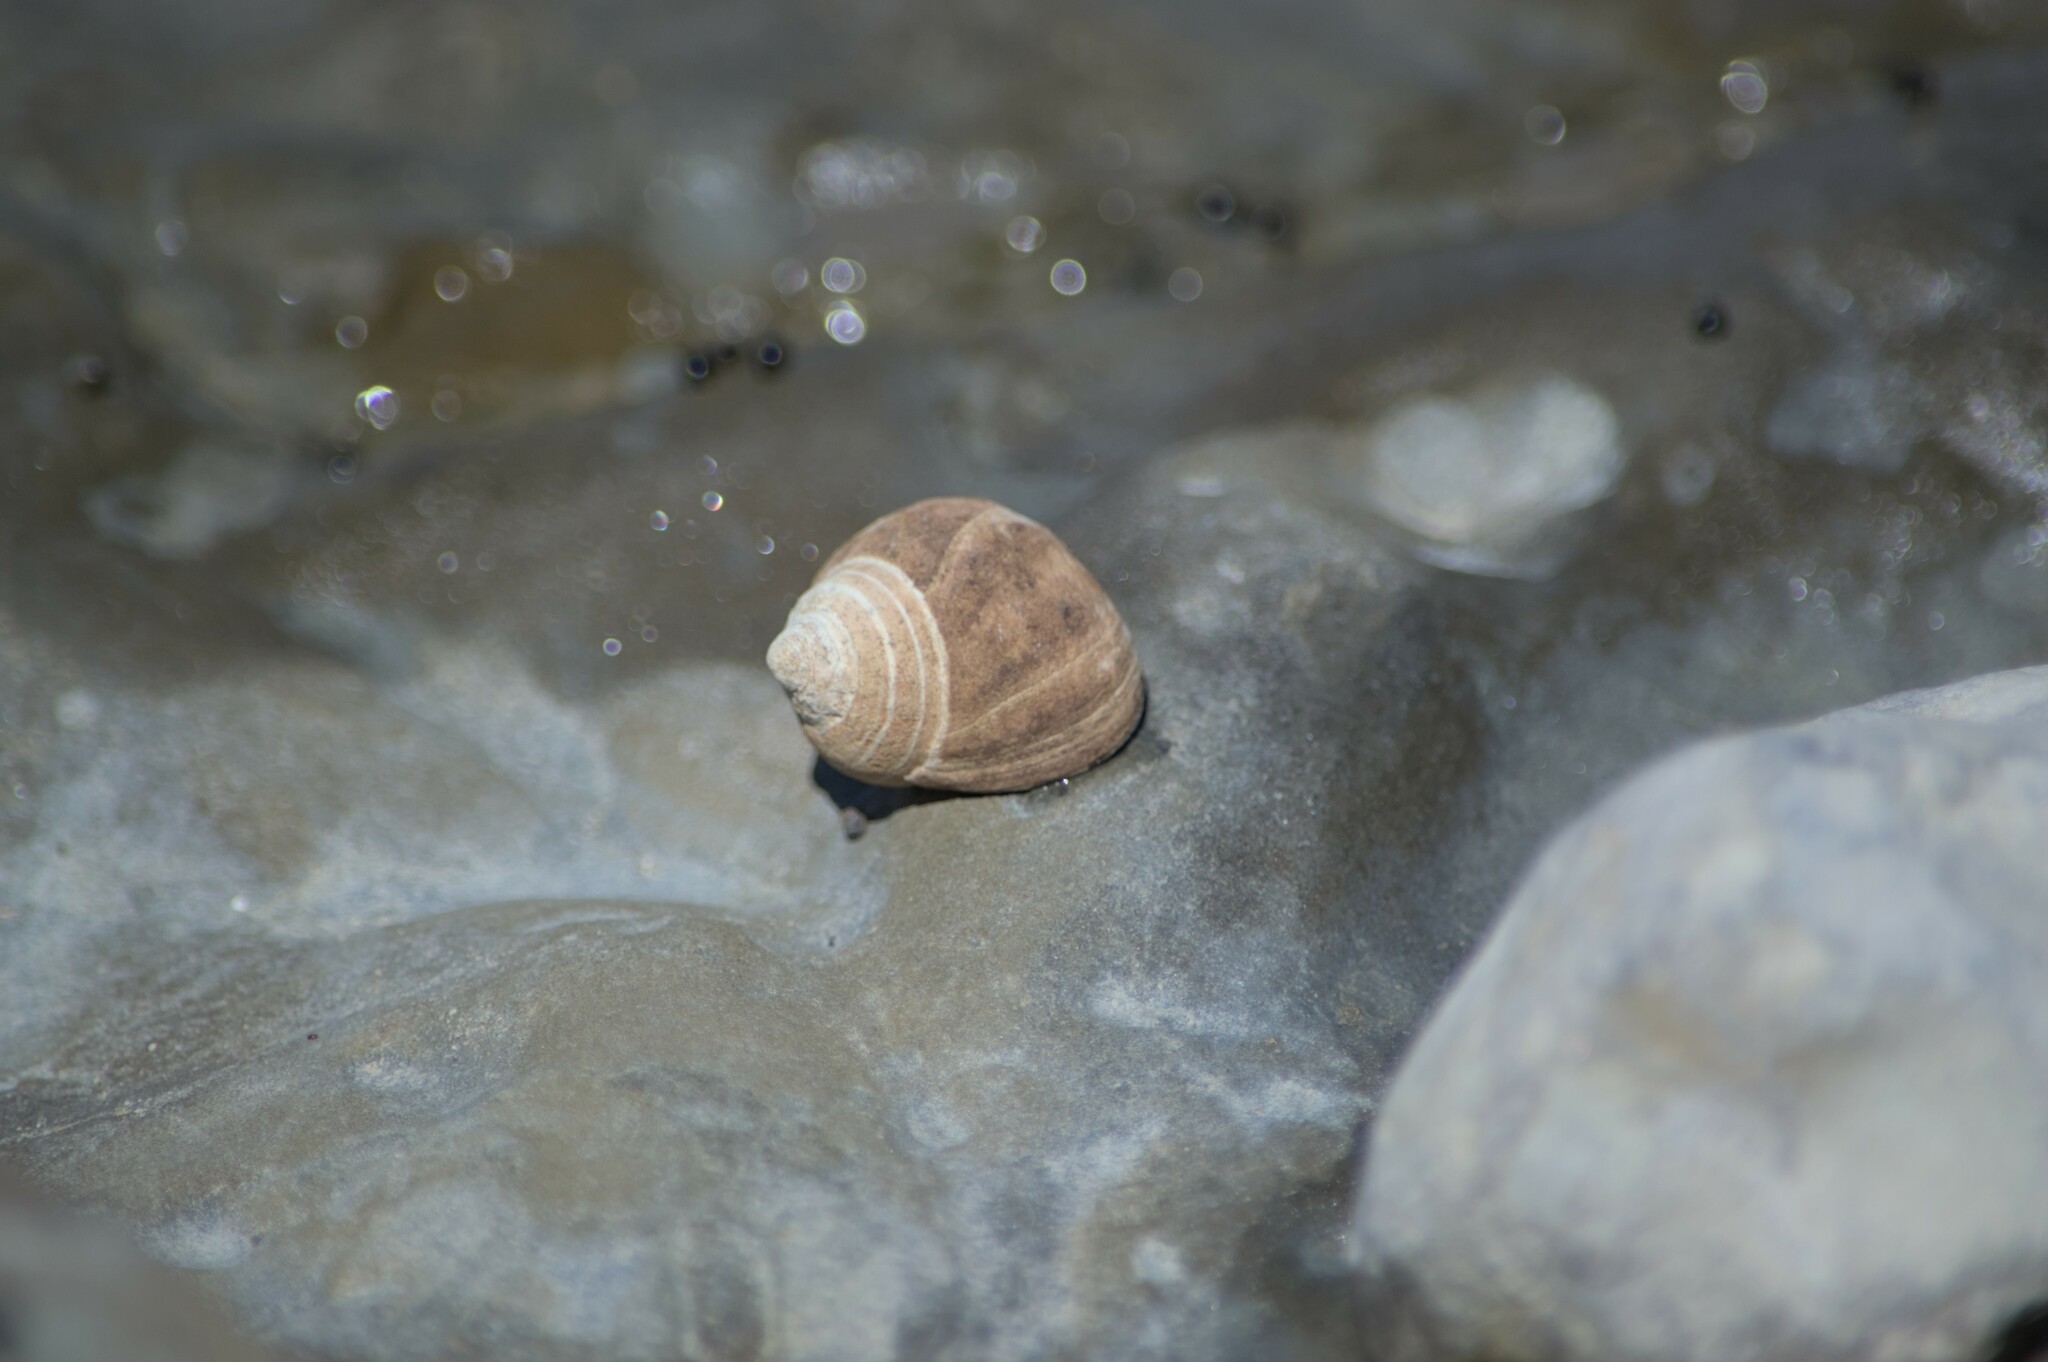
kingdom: Animalia
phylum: Mollusca
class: Gastropoda
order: Littorinimorpha
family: Littorinidae
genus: Littorina
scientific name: Littorina littorea
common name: Common periwinkle
